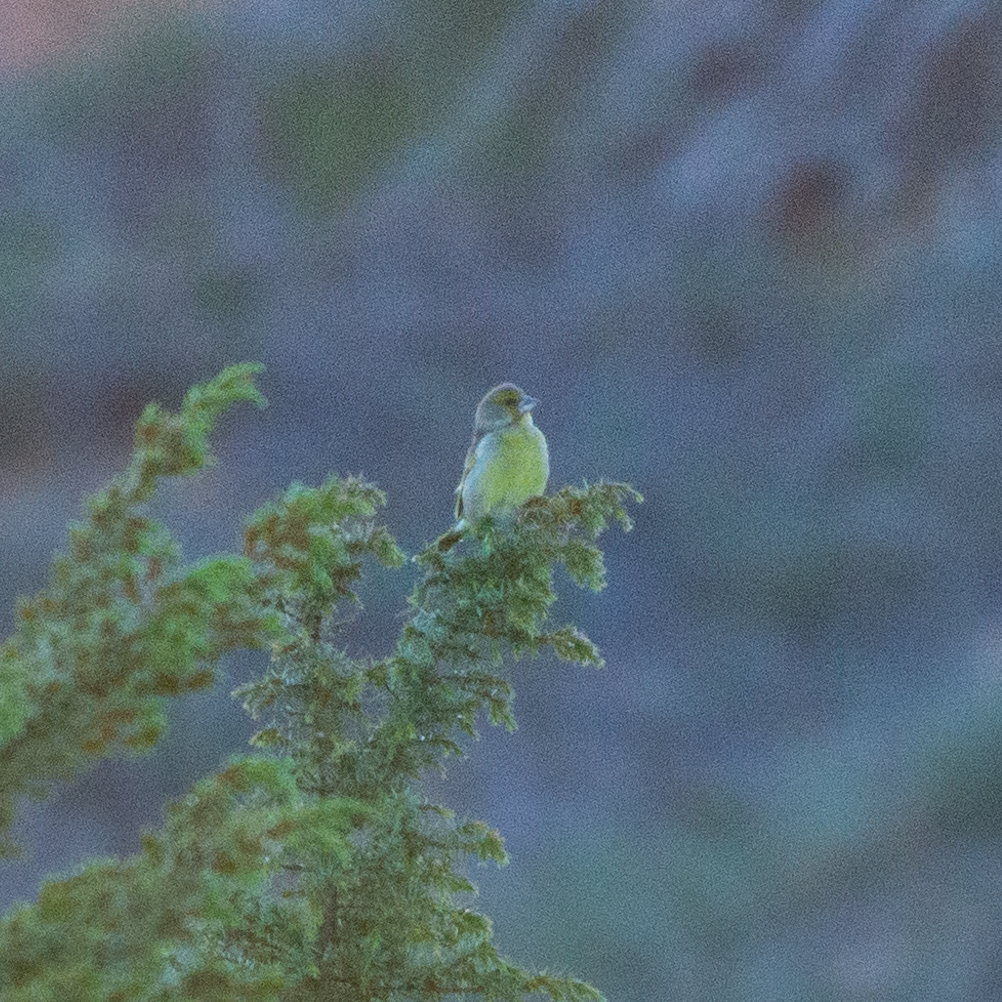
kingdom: Plantae
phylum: Tracheophyta
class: Liliopsida
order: Poales
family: Poaceae
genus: Chloris
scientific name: Chloris chloris
